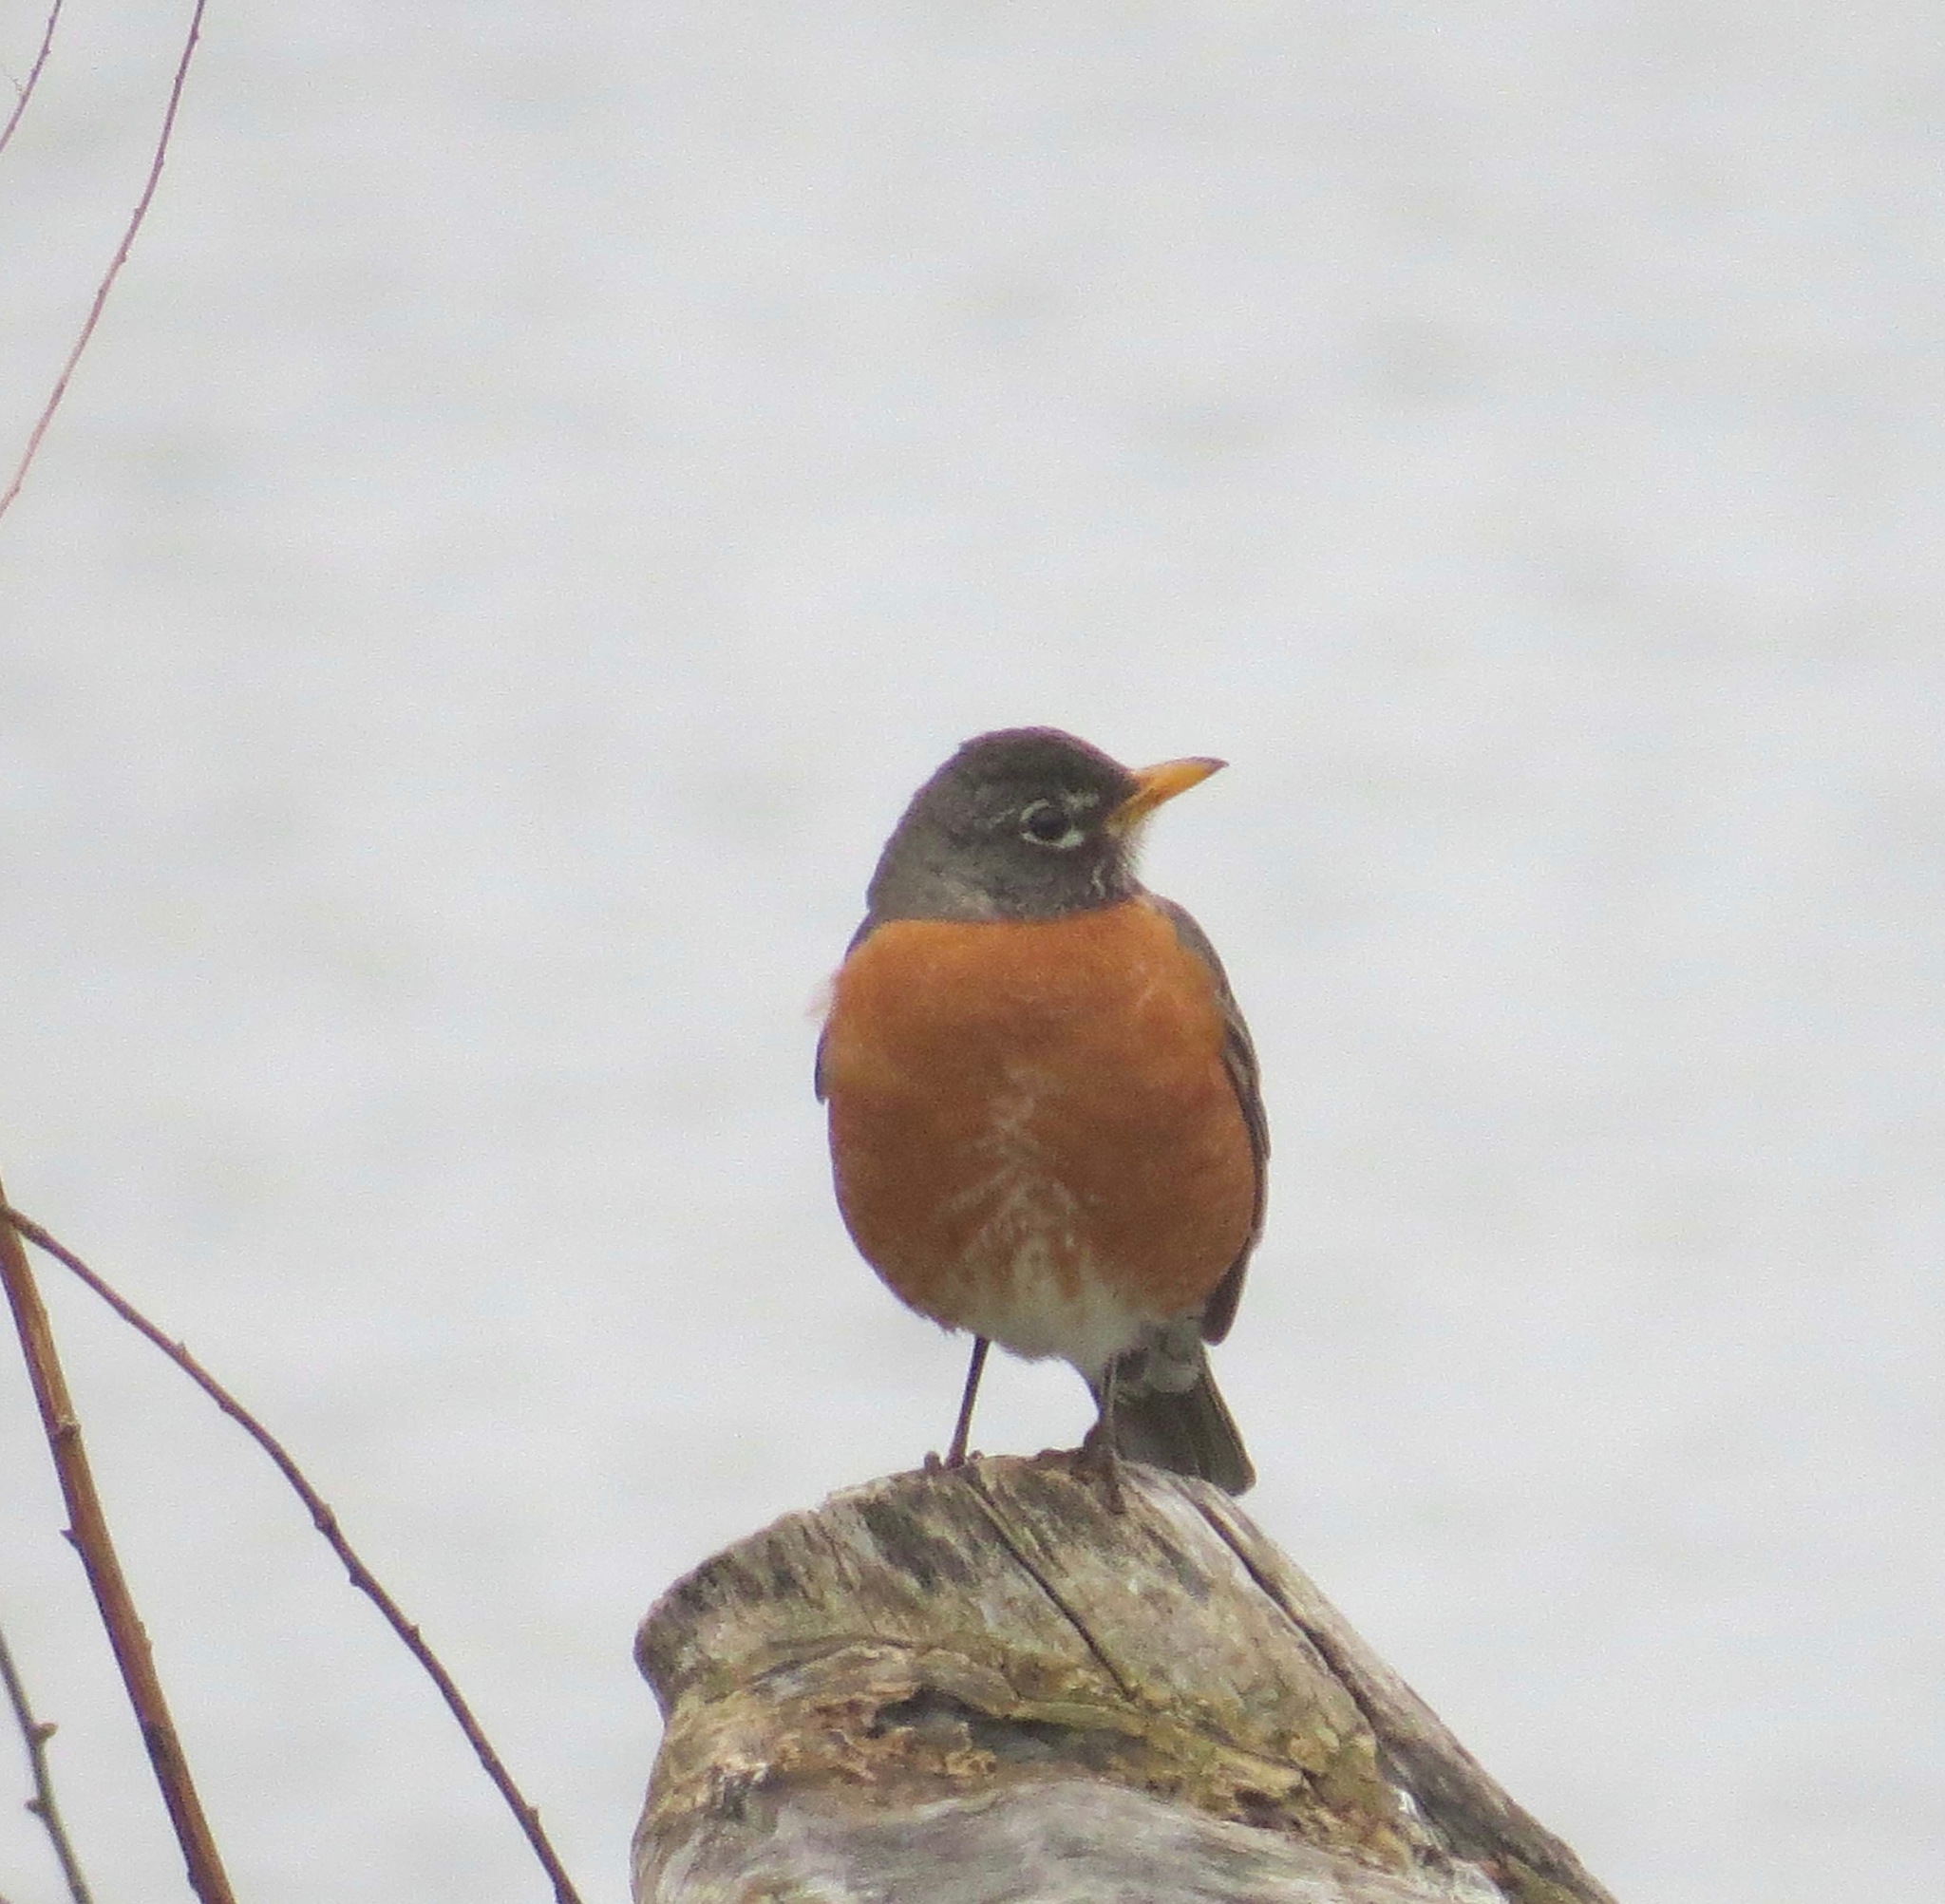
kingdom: Animalia
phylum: Chordata
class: Aves
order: Passeriformes
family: Turdidae
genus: Turdus
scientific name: Turdus migratorius
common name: American robin
